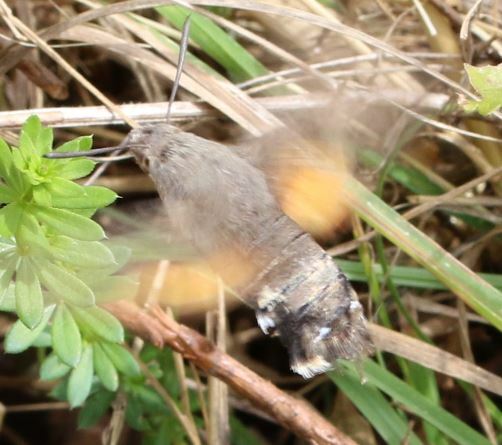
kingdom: Animalia
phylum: Arthropoda
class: Insecta
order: Lepidoptera
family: Sphingidae
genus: Macroglossum
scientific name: Macroglossum stellatarum
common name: Humming-bird hawk-moth
